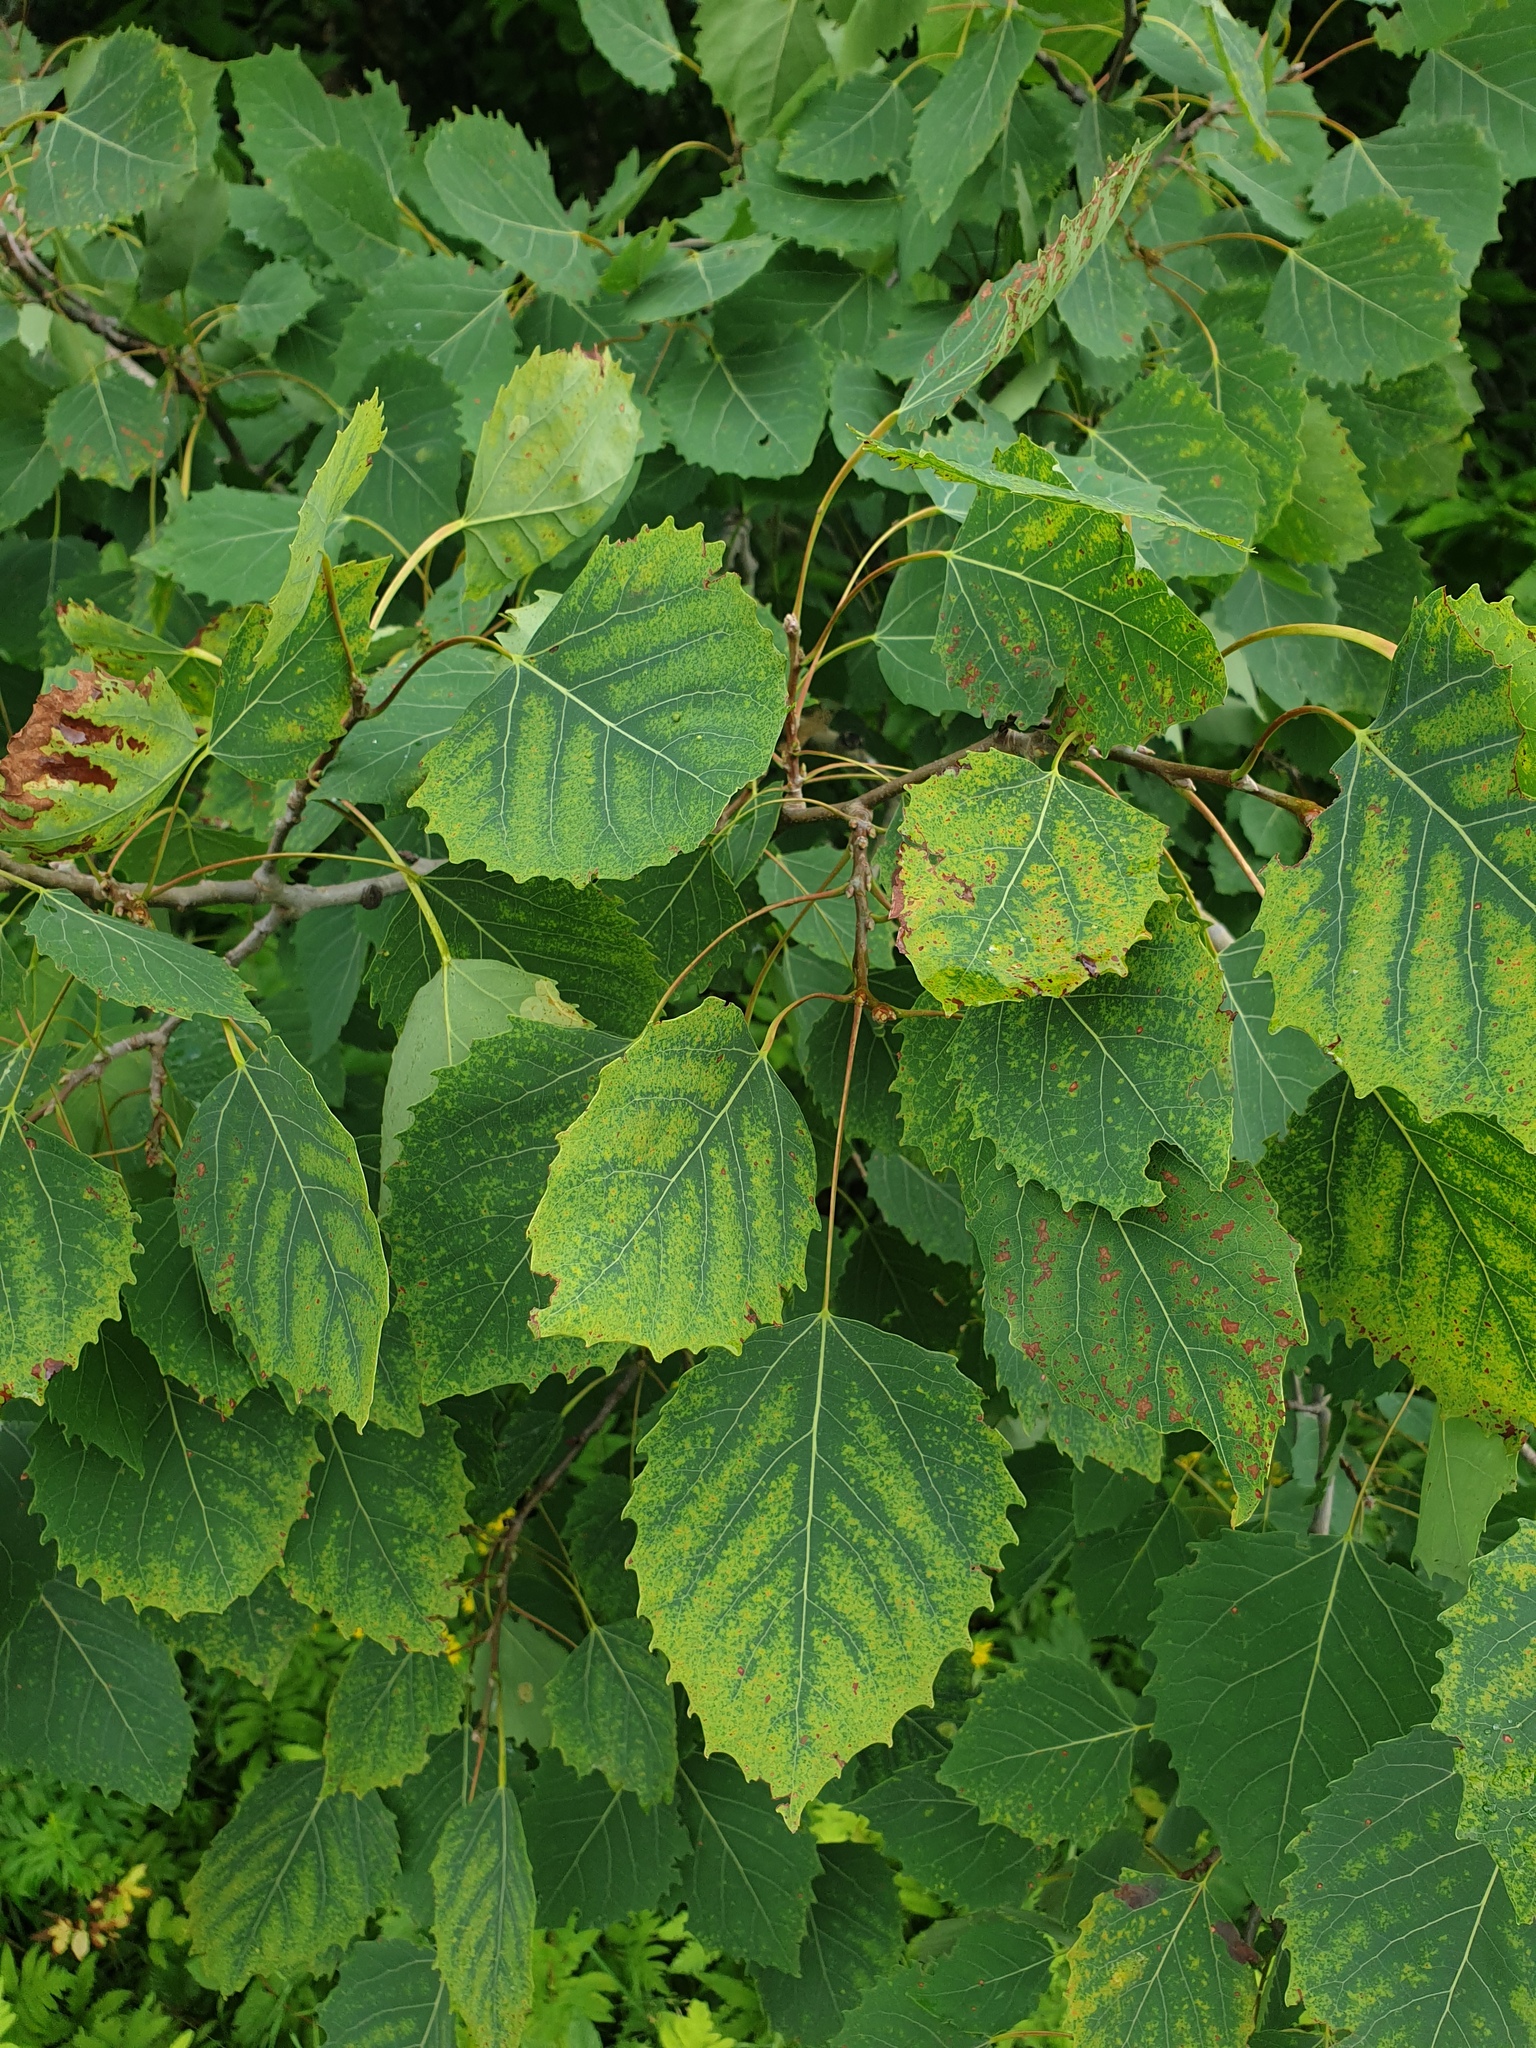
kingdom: Plantae
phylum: Tracheophyta
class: Magnoliopsida
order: Malpighiales
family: Salicaceae
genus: Populus
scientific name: Populus grandidentata
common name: Bigtooth aspen
